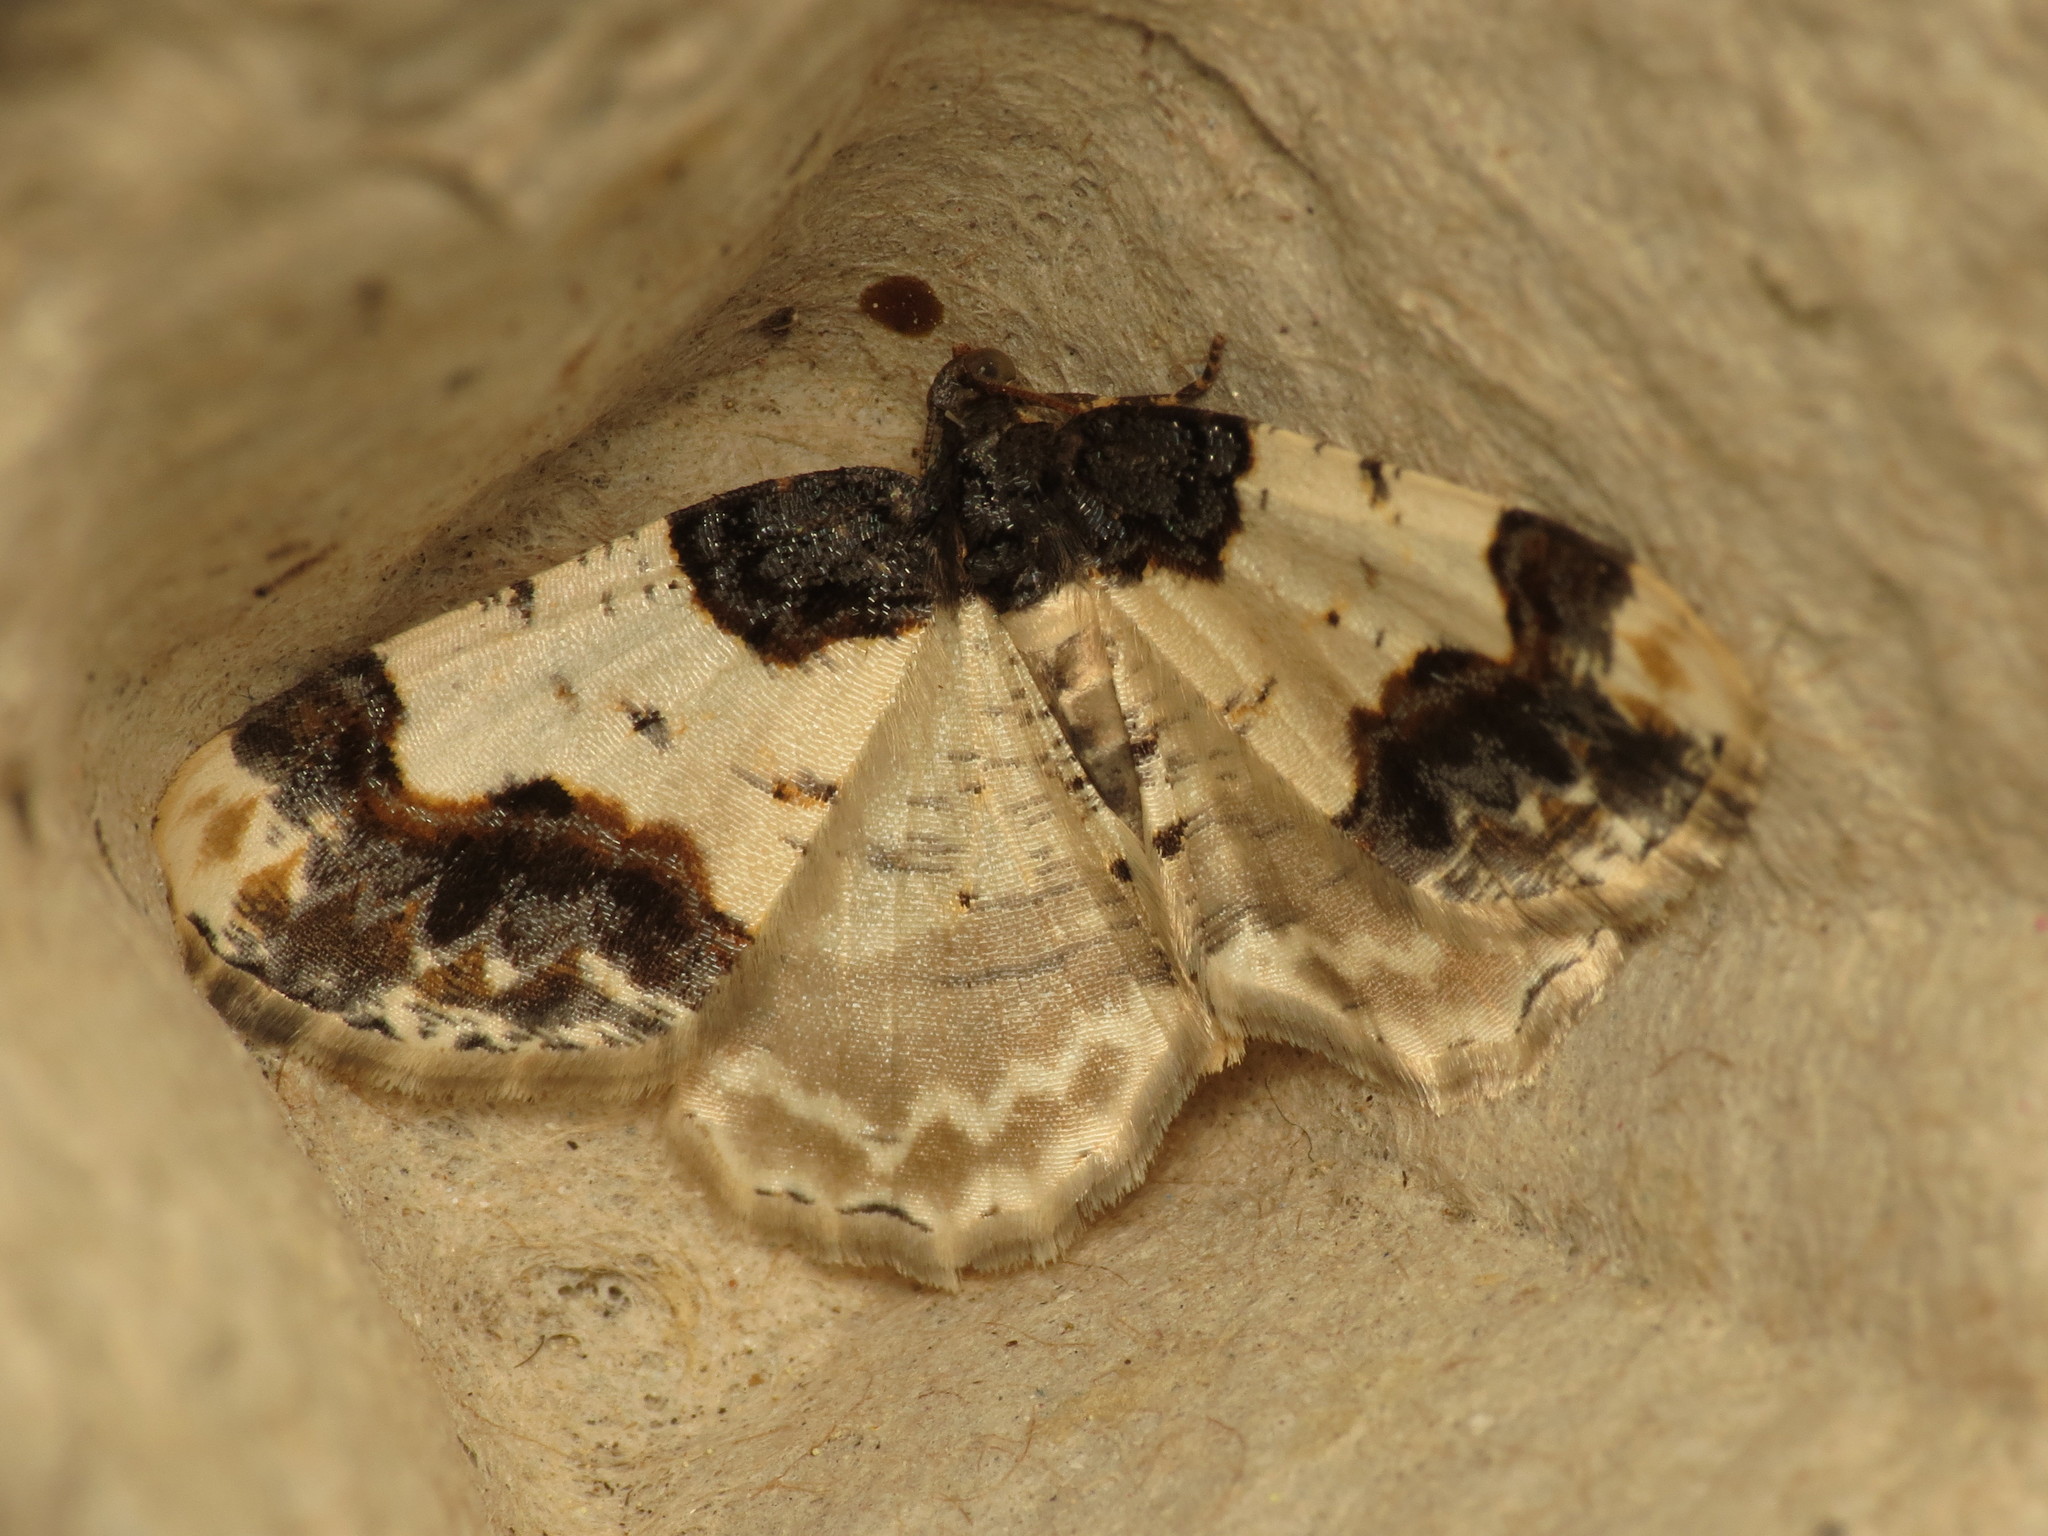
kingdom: Animalia
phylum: Arthropoda
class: Insecta
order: Lepidoptera
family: Geometridae
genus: Ligdia
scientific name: Ligdia adustata
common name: Scorched carpet
